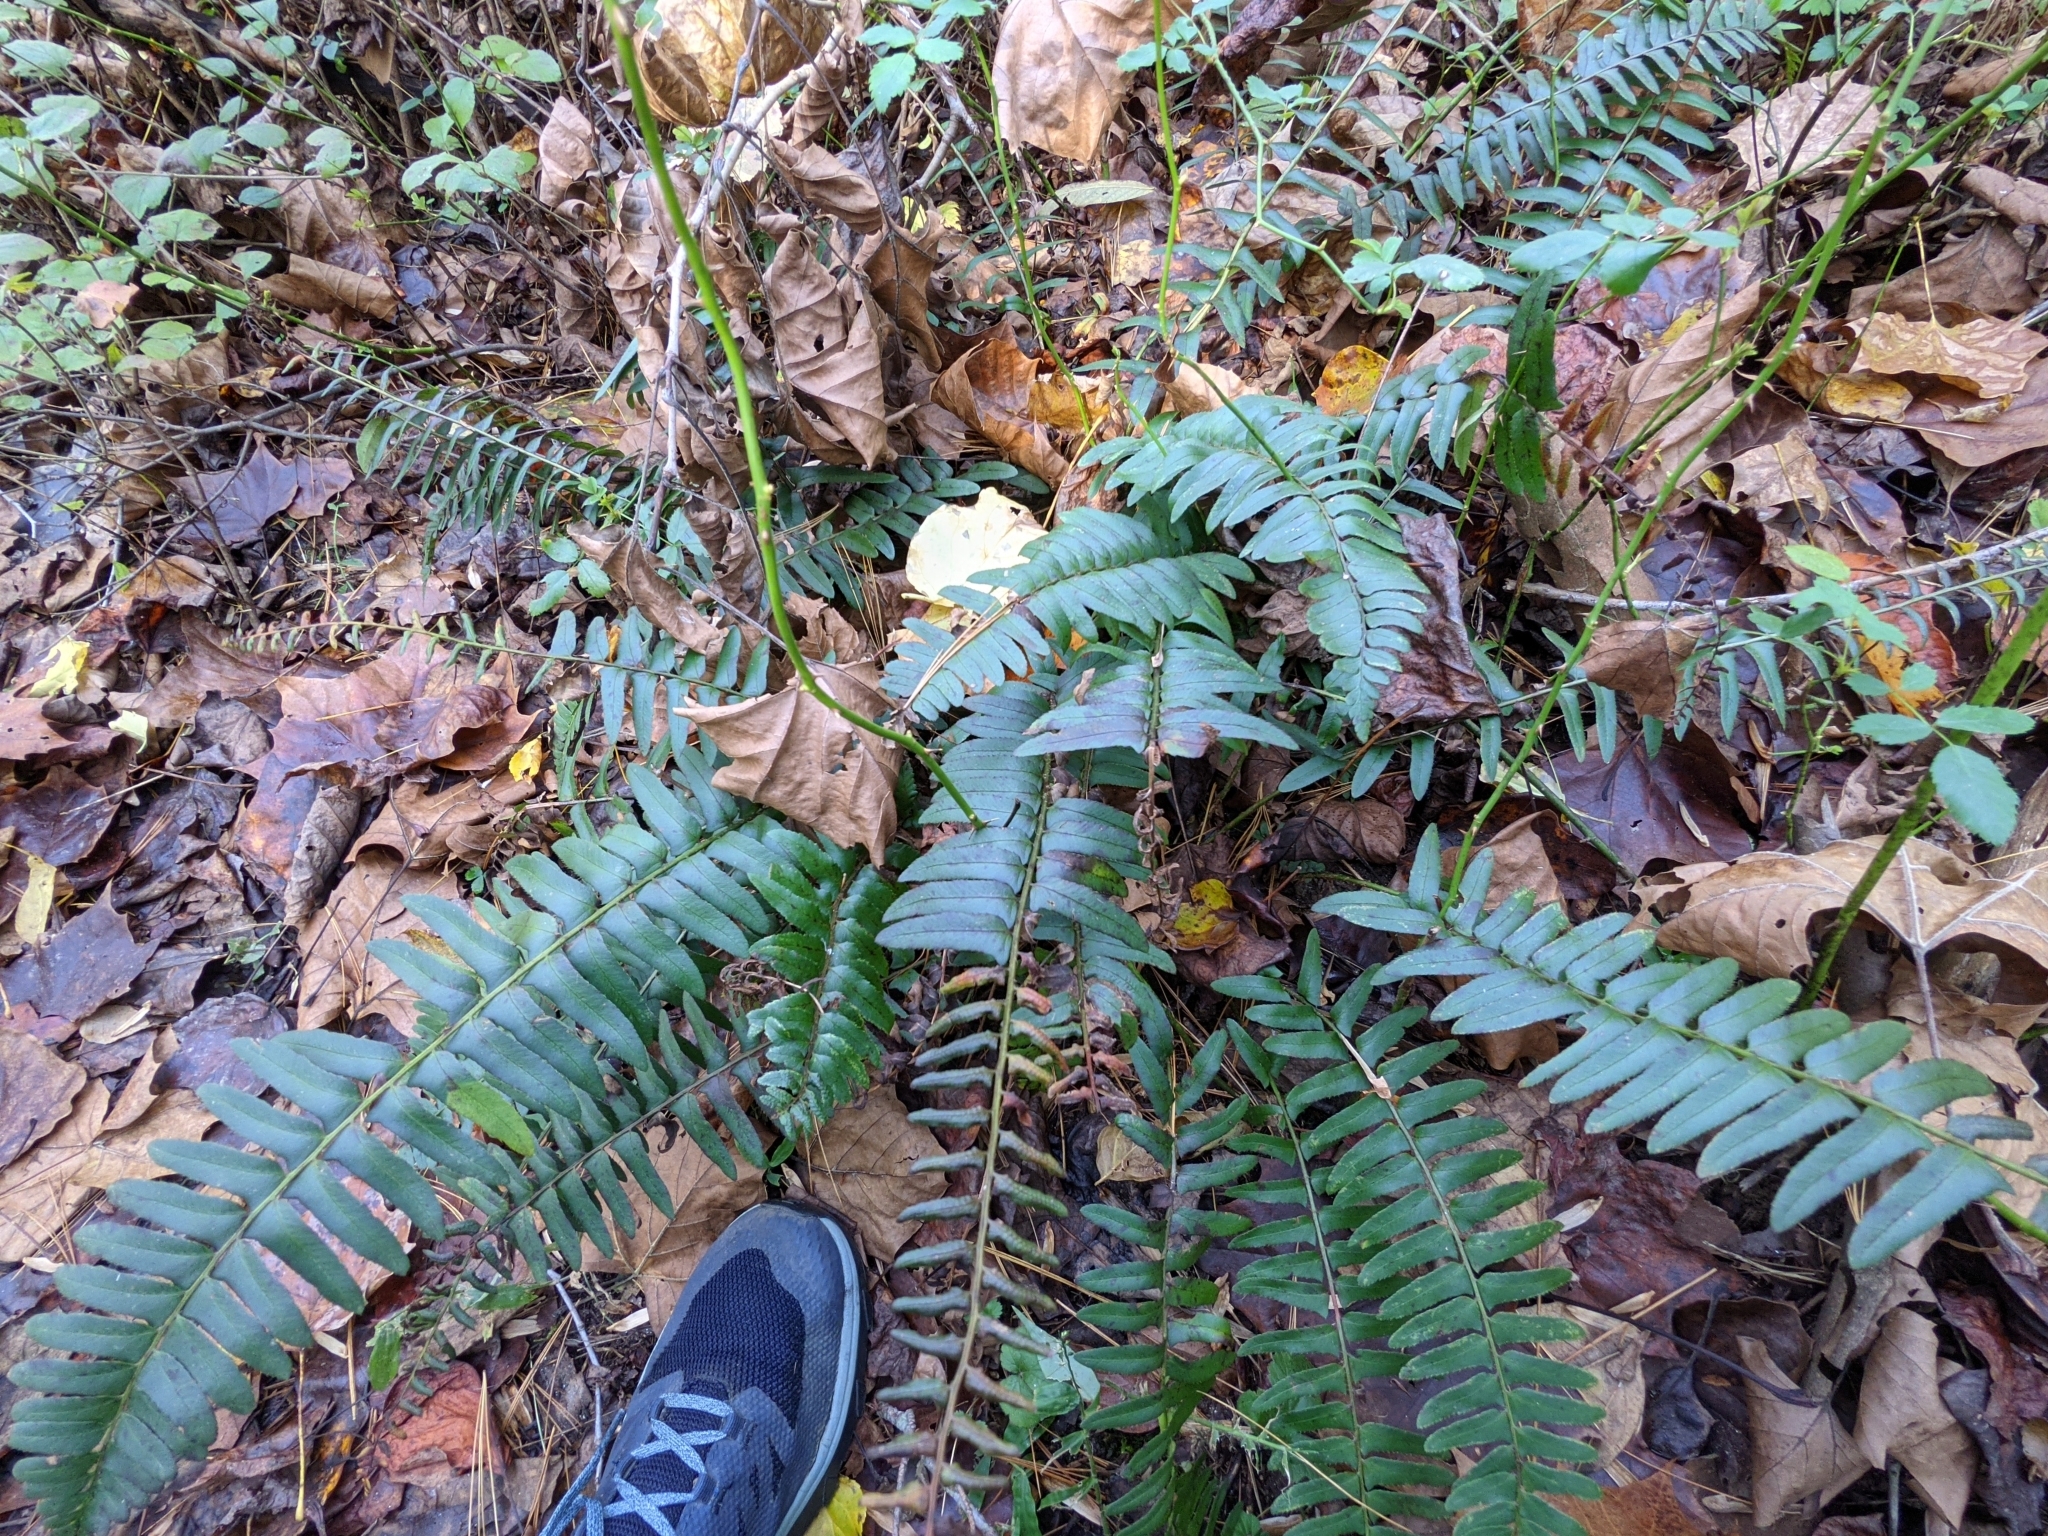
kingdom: Plantae
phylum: Tracheophyta
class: Polypodiopsida
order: Polypodiales
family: Dryopteridaceae
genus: Polystichum
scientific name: Polystichum acrostichoides
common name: Christmas fern
